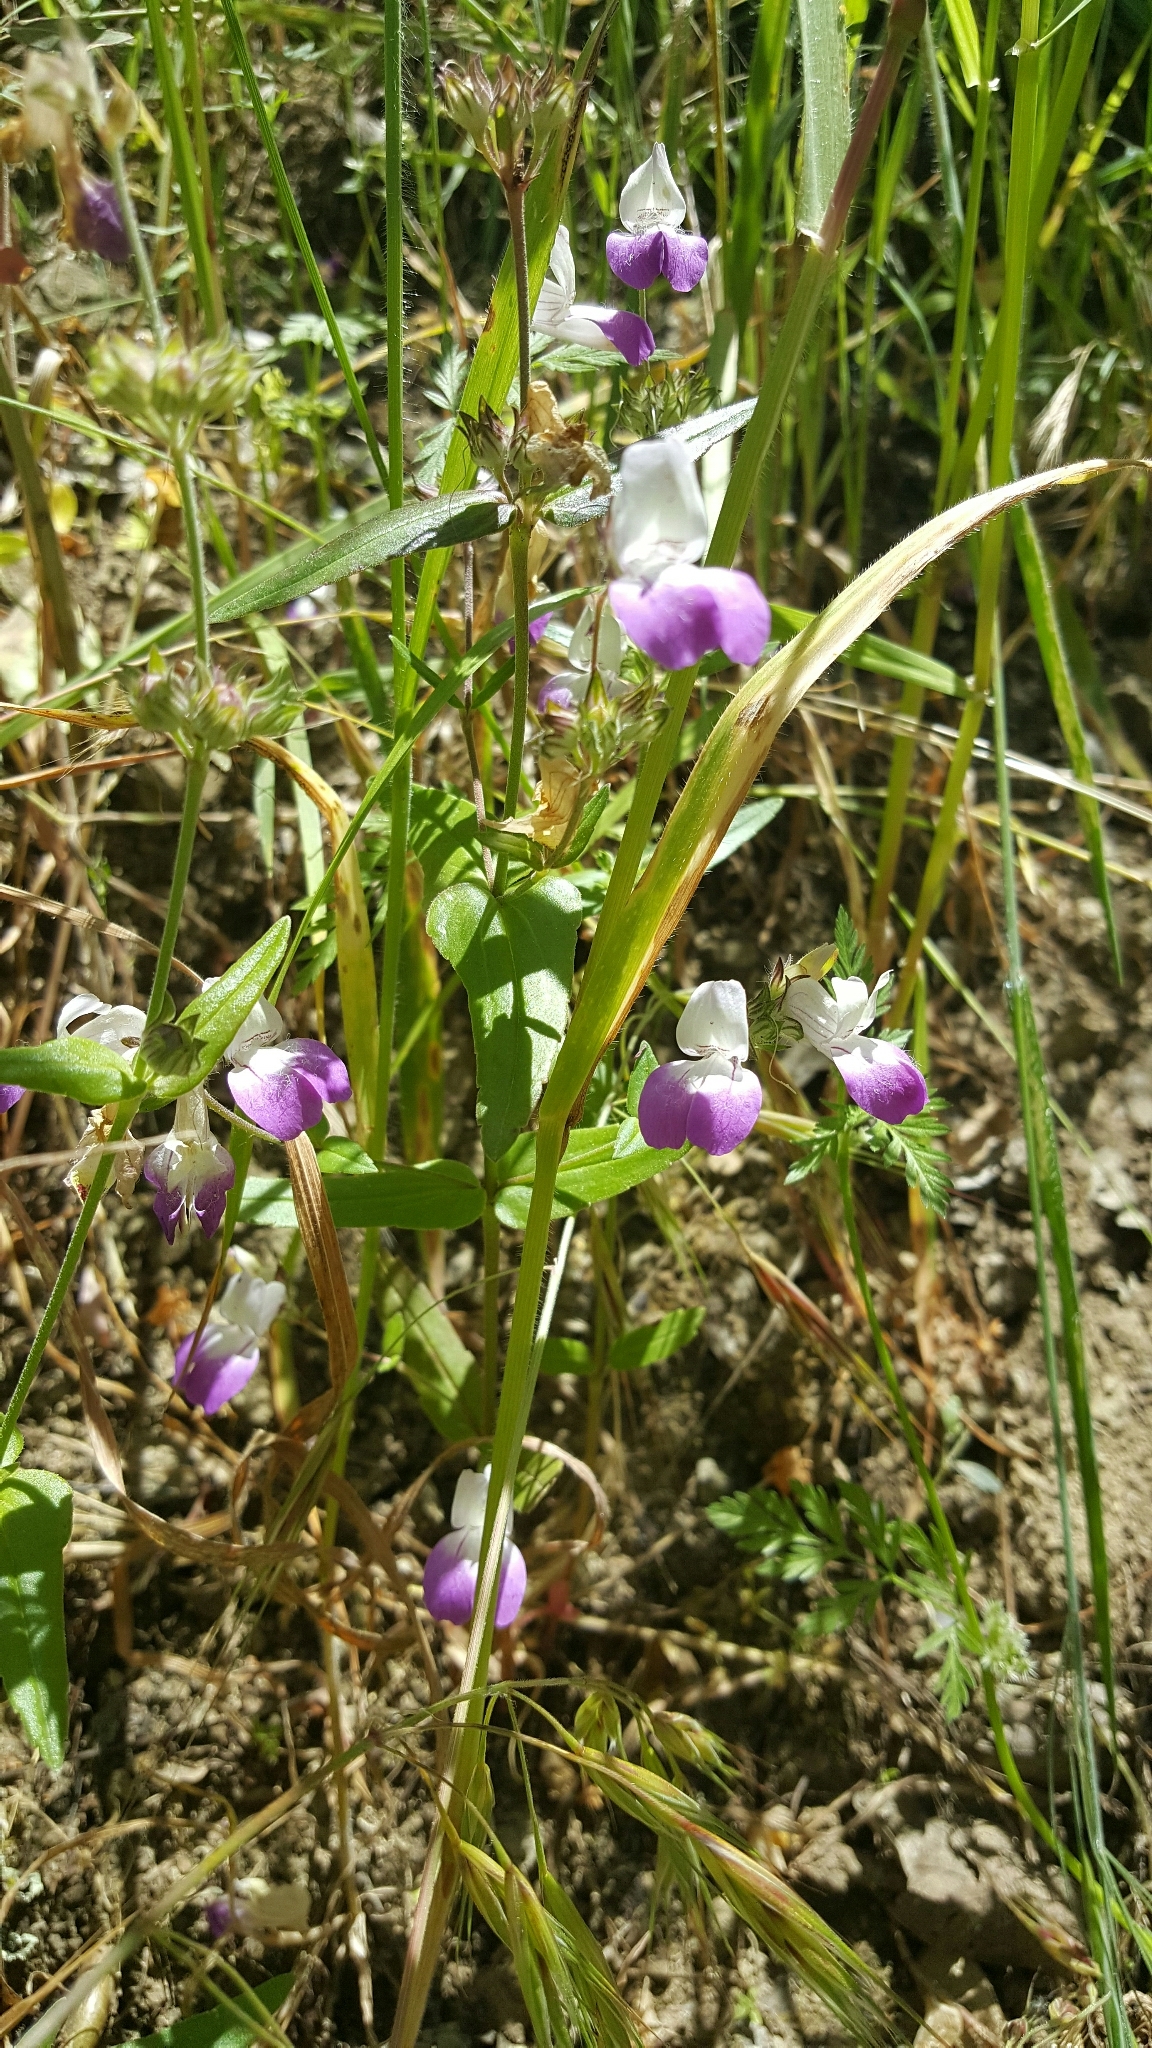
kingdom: Plantae
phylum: Tracheophyta
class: Magnoliopsida
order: Lamiales
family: Plantaginaceae
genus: Collinsia
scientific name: Collinsia heterophylla
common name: Chinese-houses
